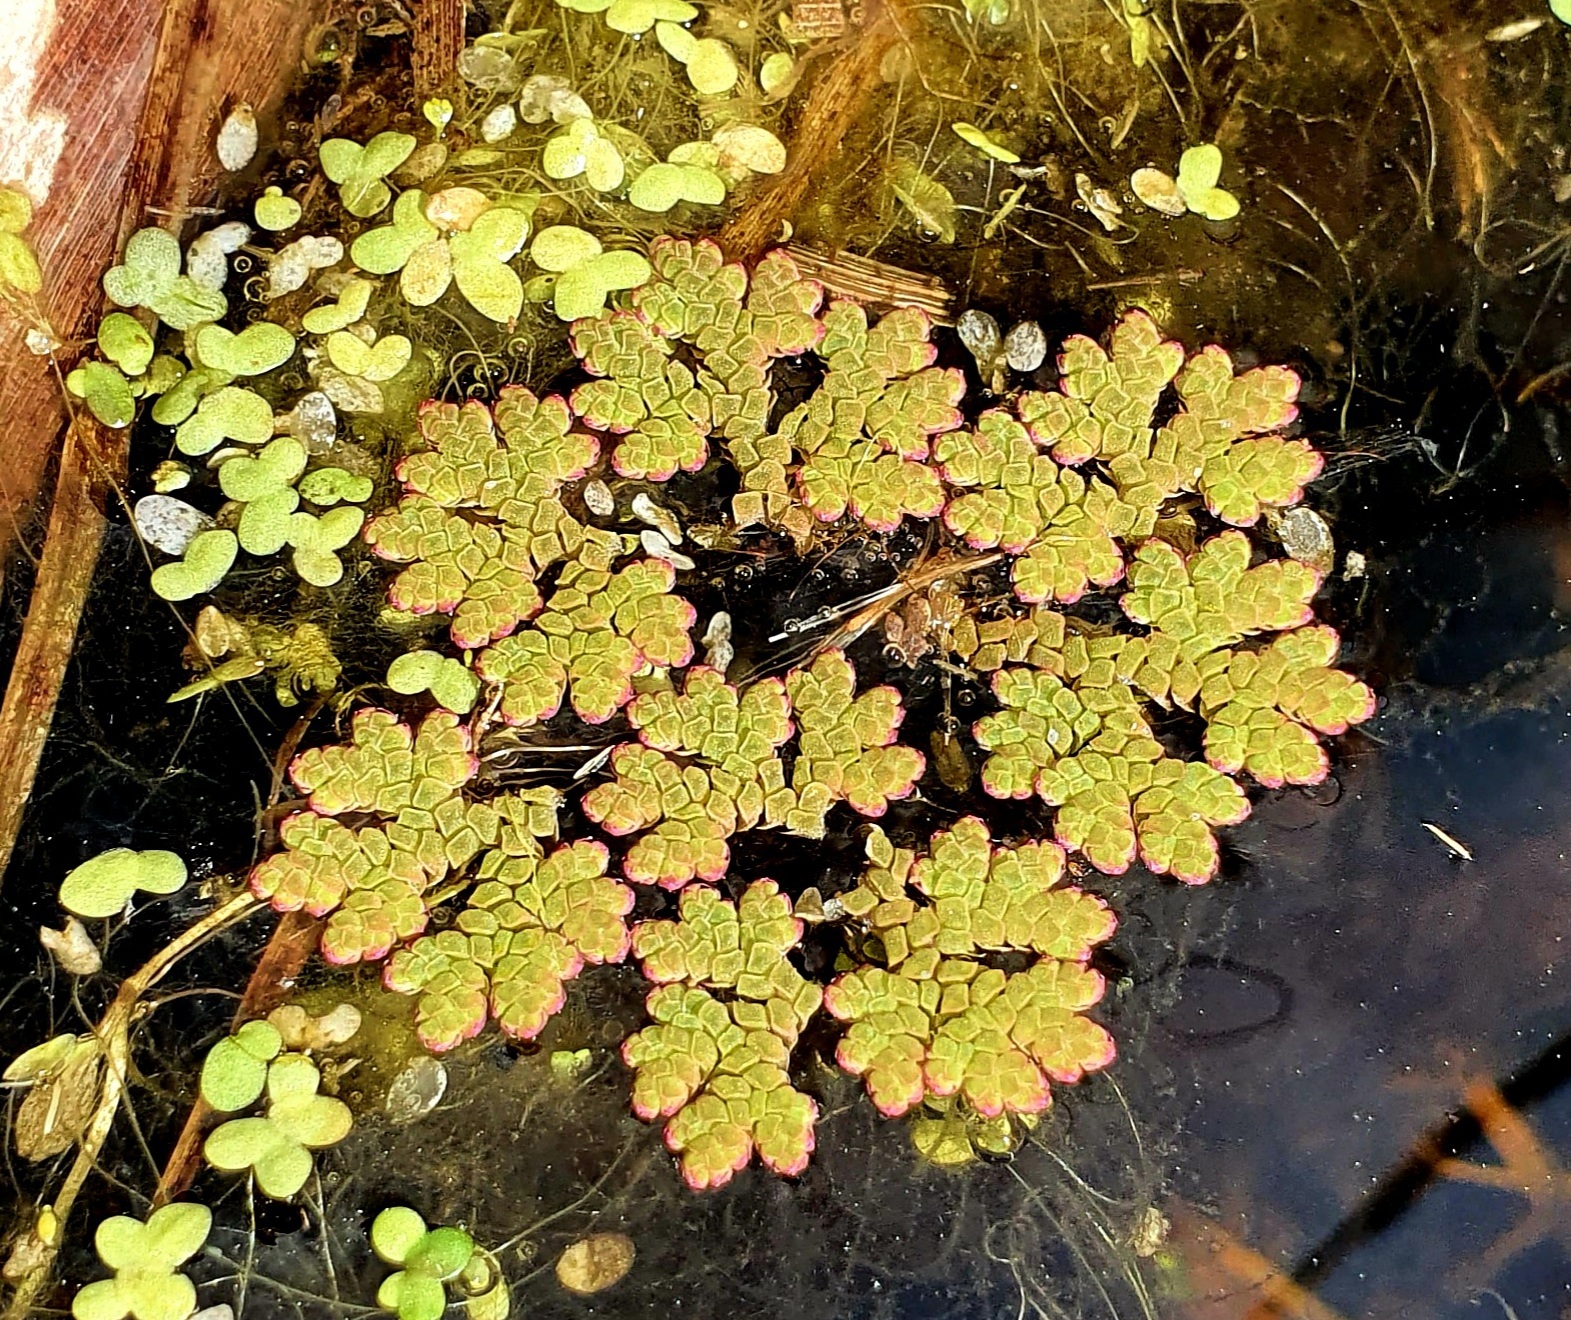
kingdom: Plantae
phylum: Tracheophyta
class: Polypodiopsida
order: Salviniales
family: Salviniaceae
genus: Azolla
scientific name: Azolla rubra
